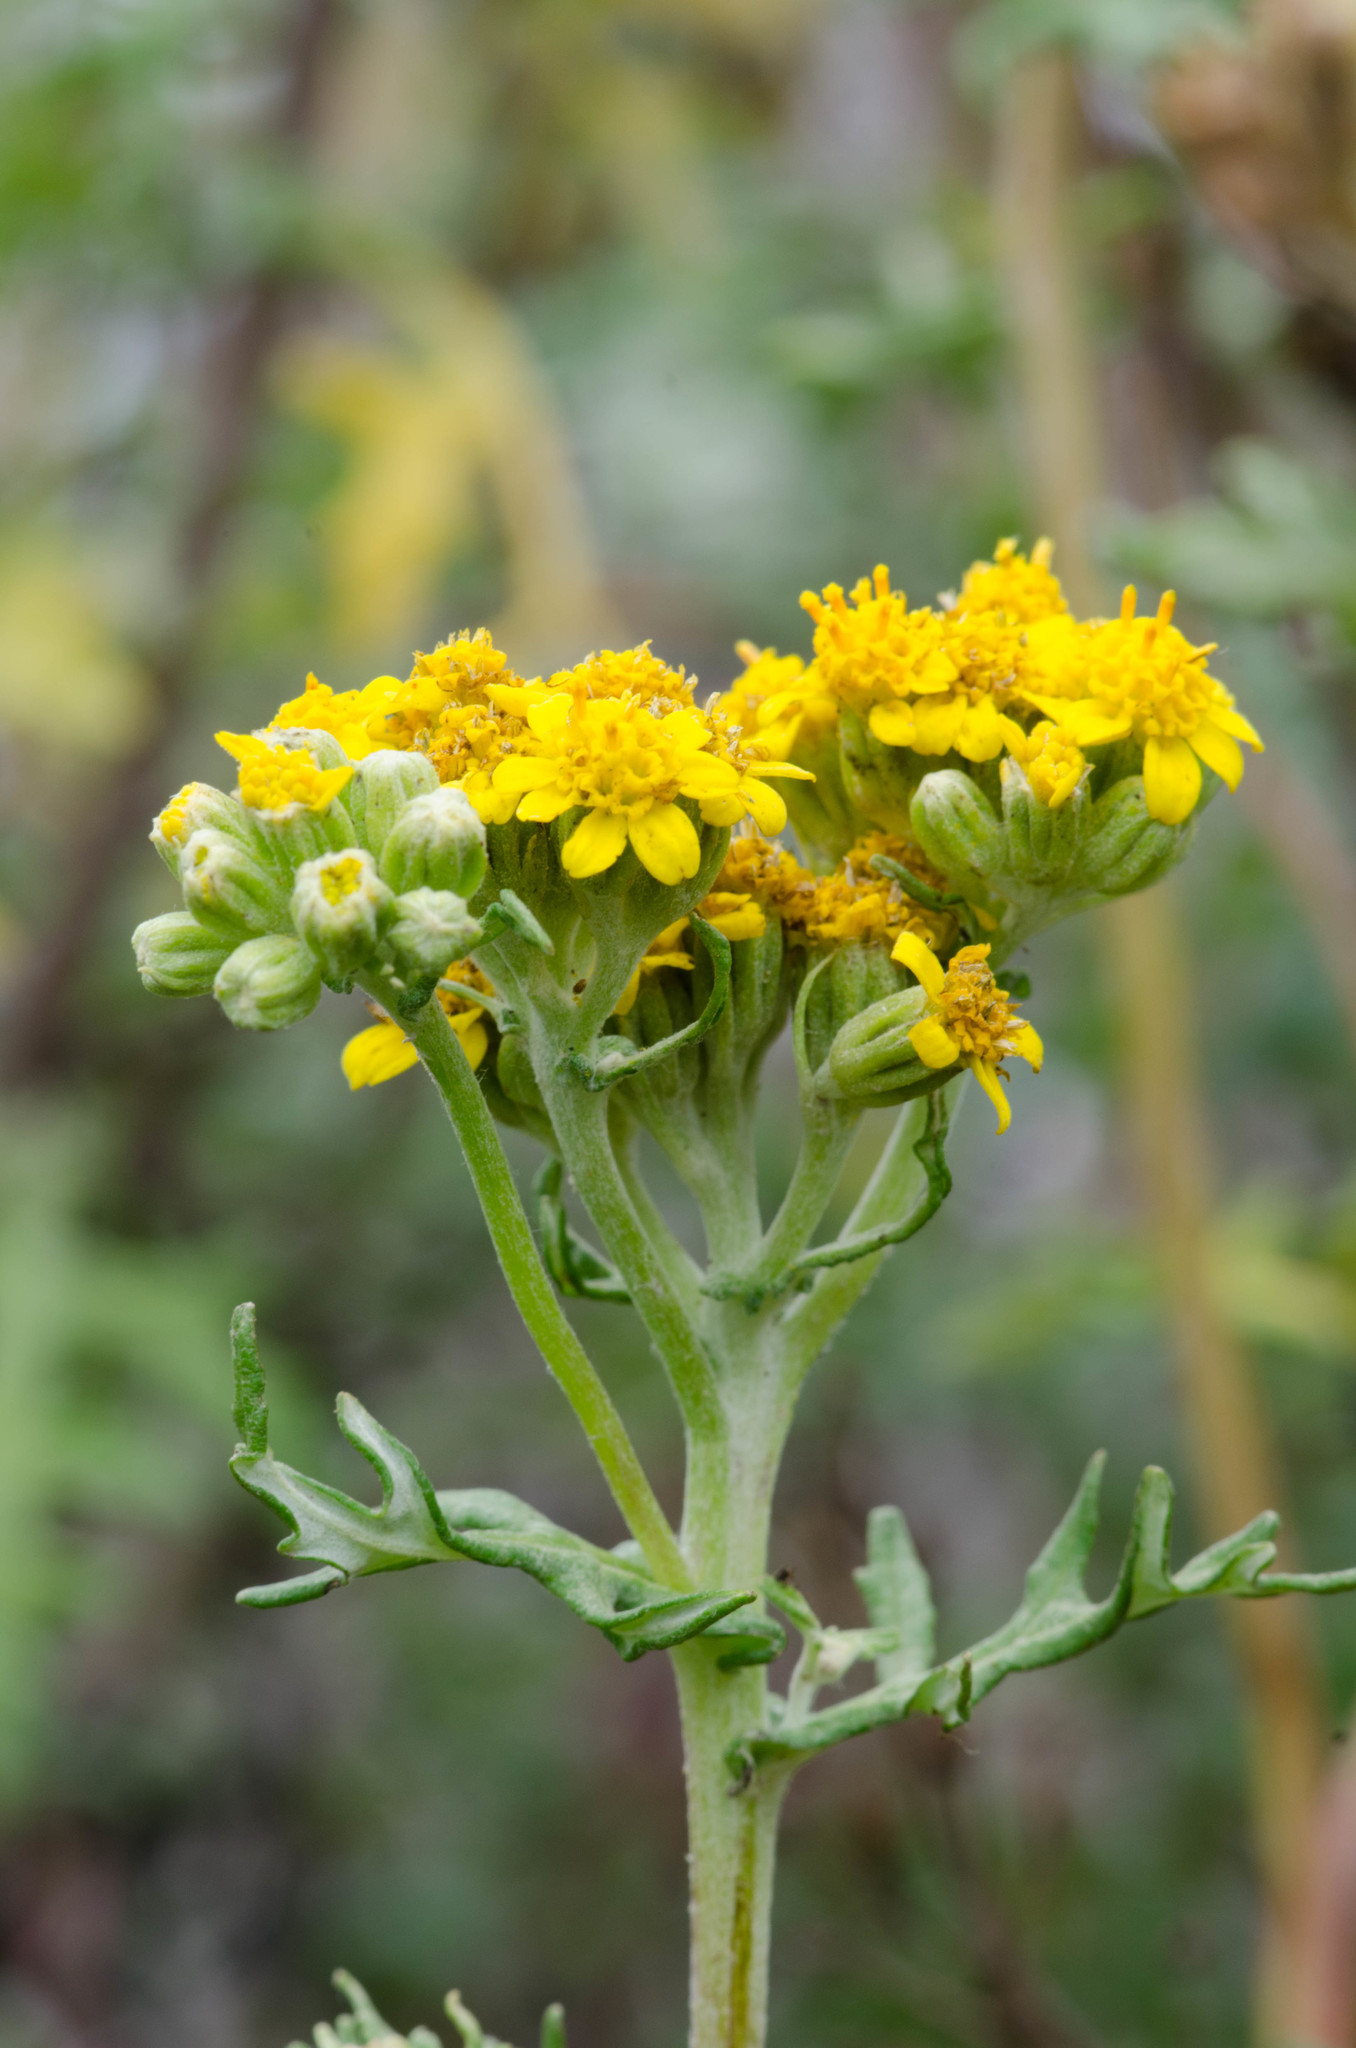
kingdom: Plantae
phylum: Tracheophyta
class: Magnoliopsida
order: Asterales
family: Asteraceae
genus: Eriophyllum
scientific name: Eriophyllum staechadifolium
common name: Lizardtail
